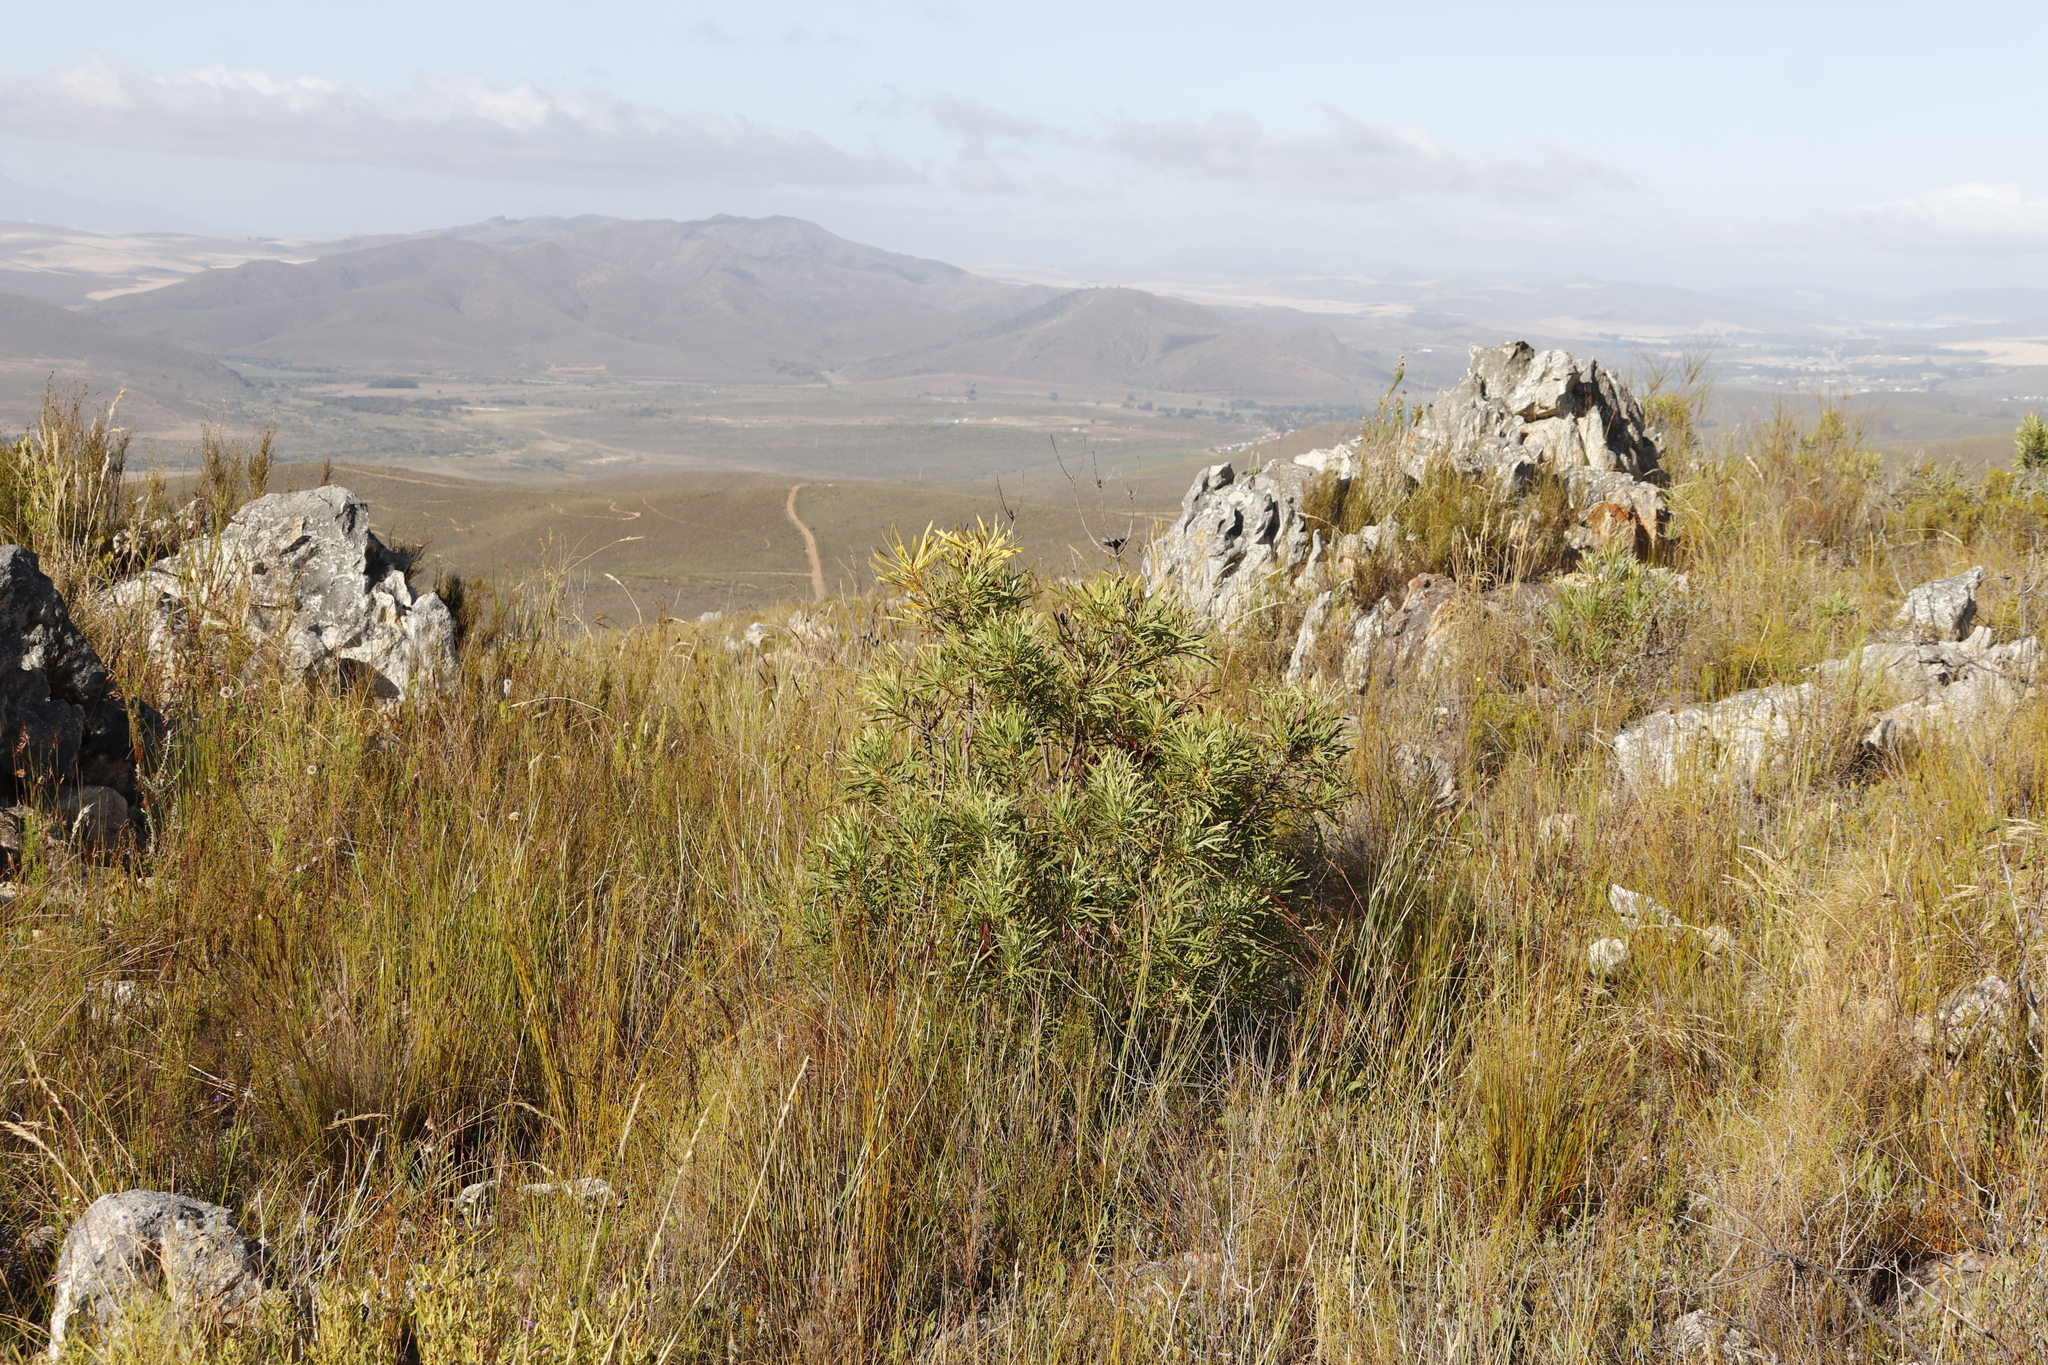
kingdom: Plantae
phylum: Tracheophyta
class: Magnoliopsida
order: Proteales
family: Proteaceae
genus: Protea
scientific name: Protea repens
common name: Sugarbush
